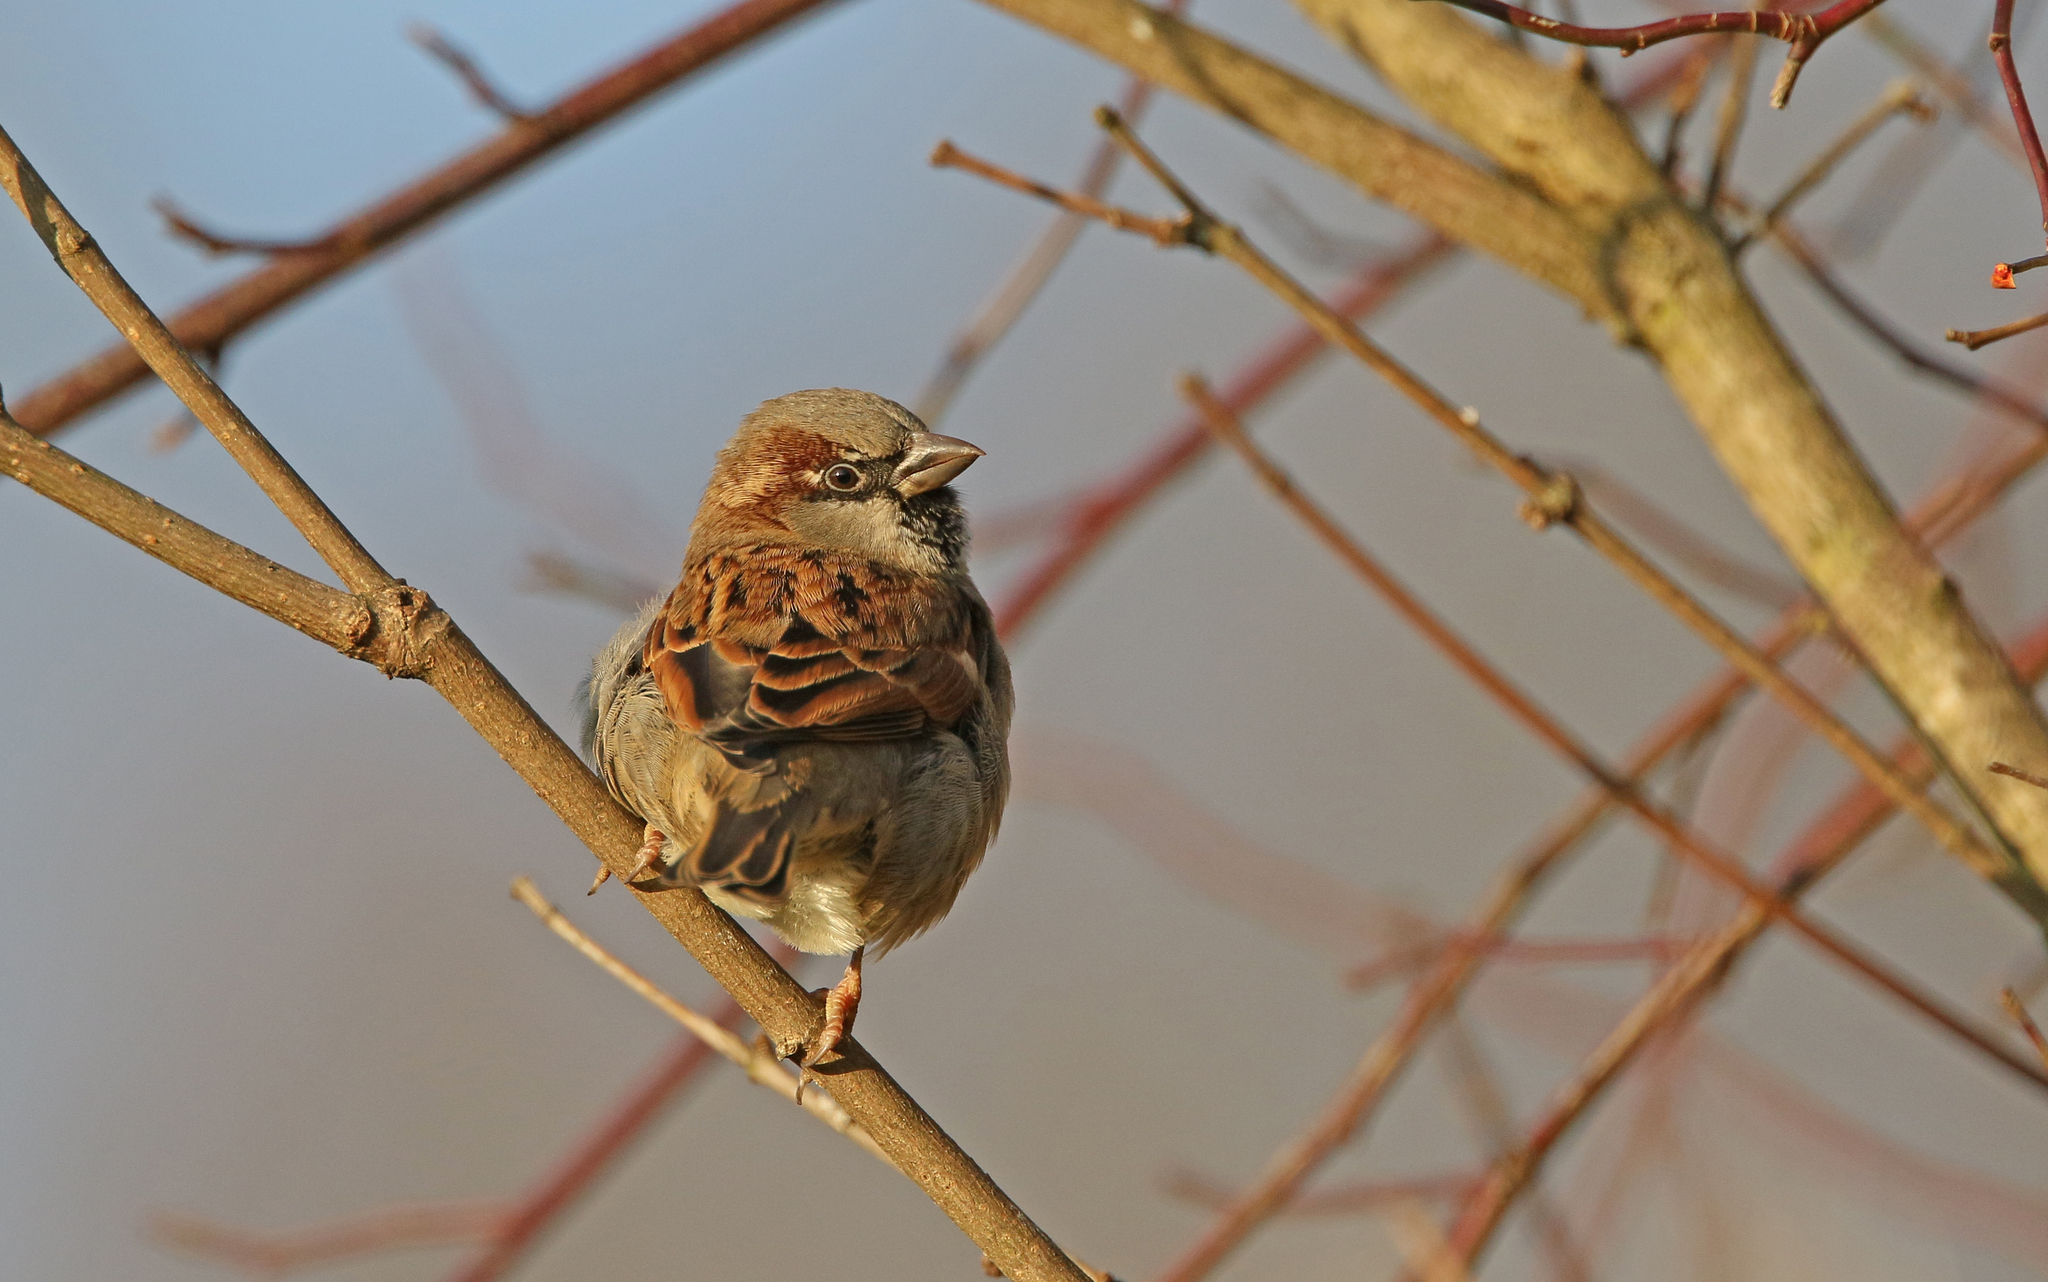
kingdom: Animalia
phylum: Chordata
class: Aves
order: Passeriformes
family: Passeridae
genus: Passer
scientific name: Passer domesticus
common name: House sparrow
